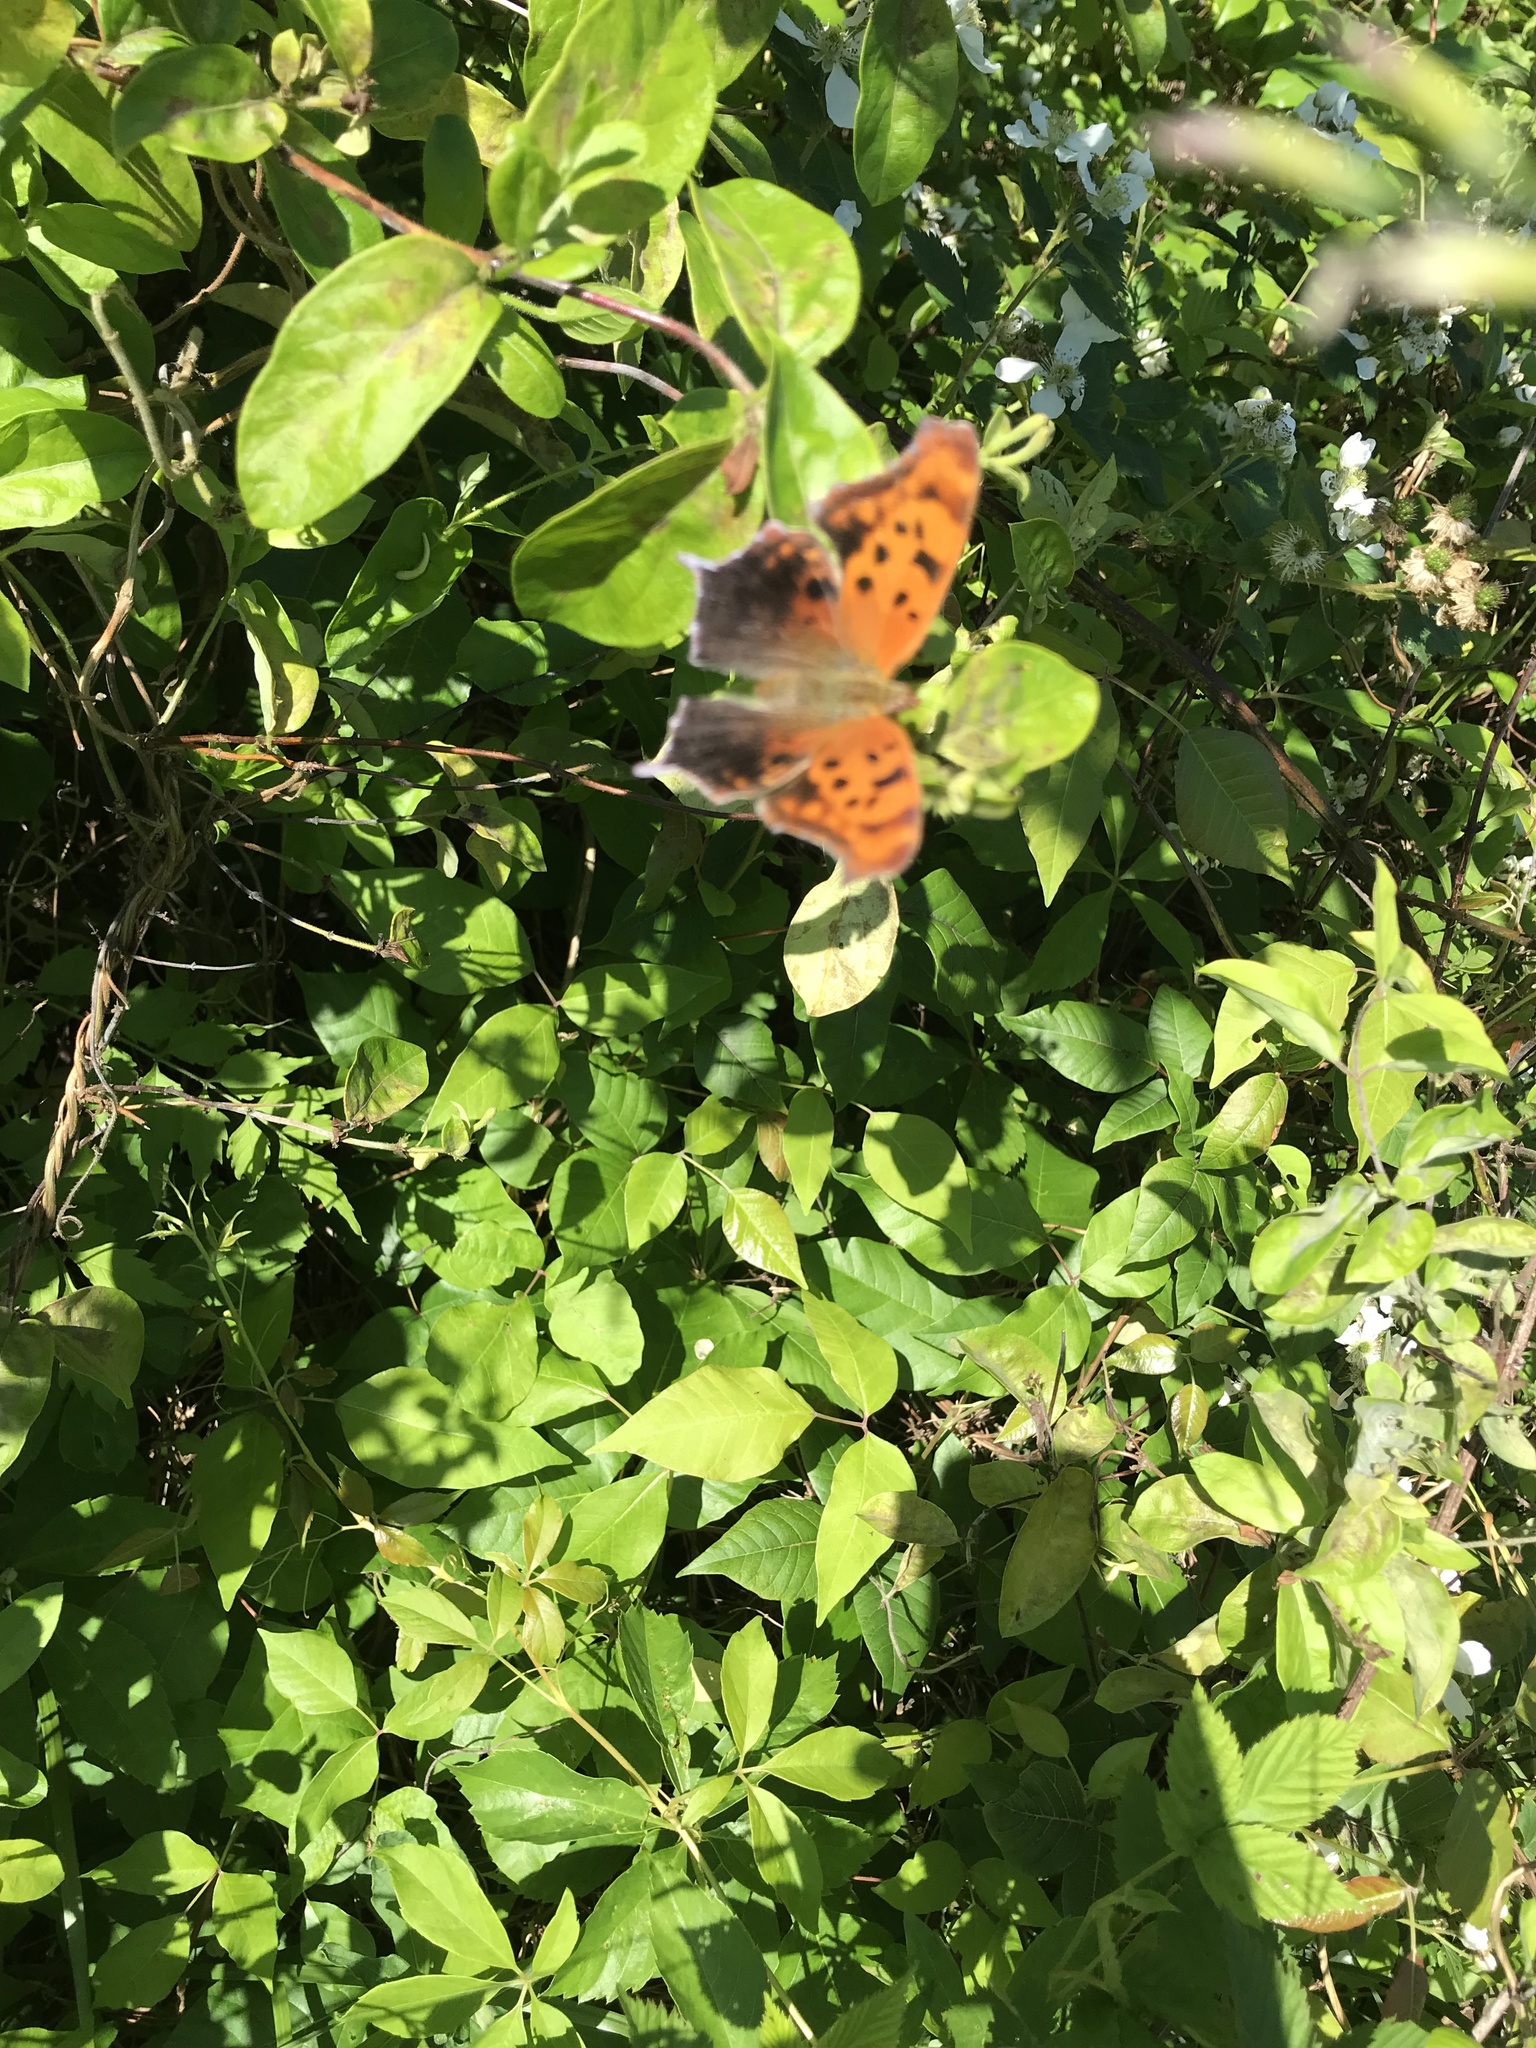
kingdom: Animalia
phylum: Arthropoda
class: Insecta
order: Lepidoptera
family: Nymphalidae
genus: Polygonia
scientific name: Polygonia interrogationis
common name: Question mark
